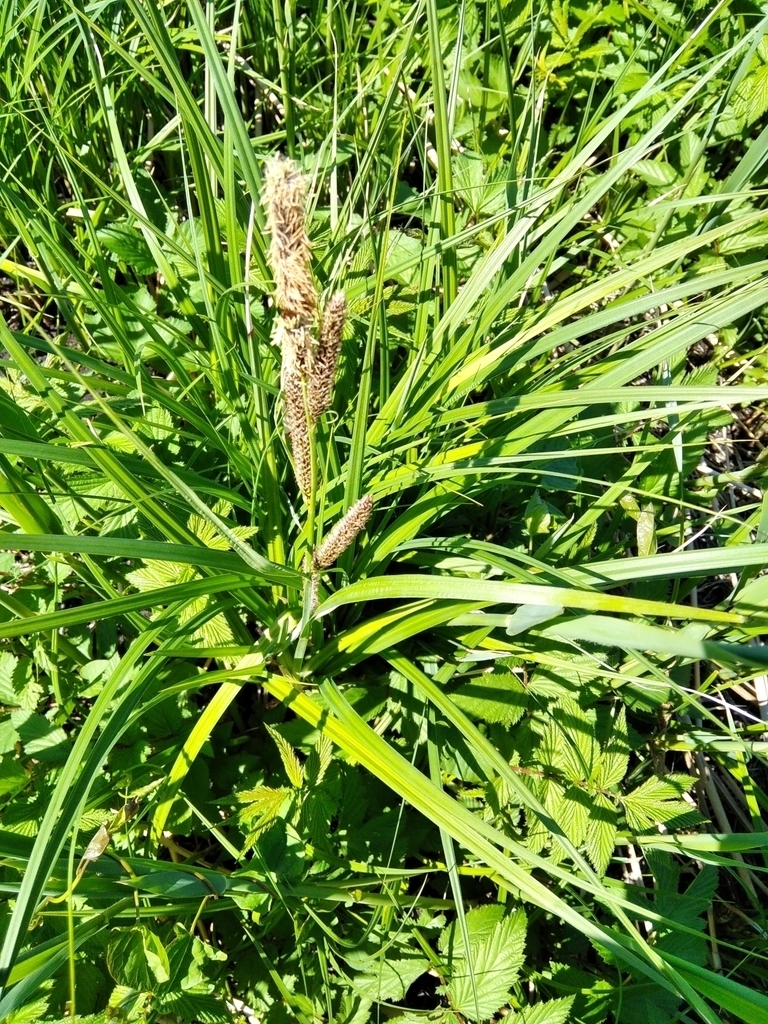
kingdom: Plantae
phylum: Tracheophyta
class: Liliopsida
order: Poales
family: Cyperaceae
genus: Carex
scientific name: Carex riparia
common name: Greater pond-sedge
